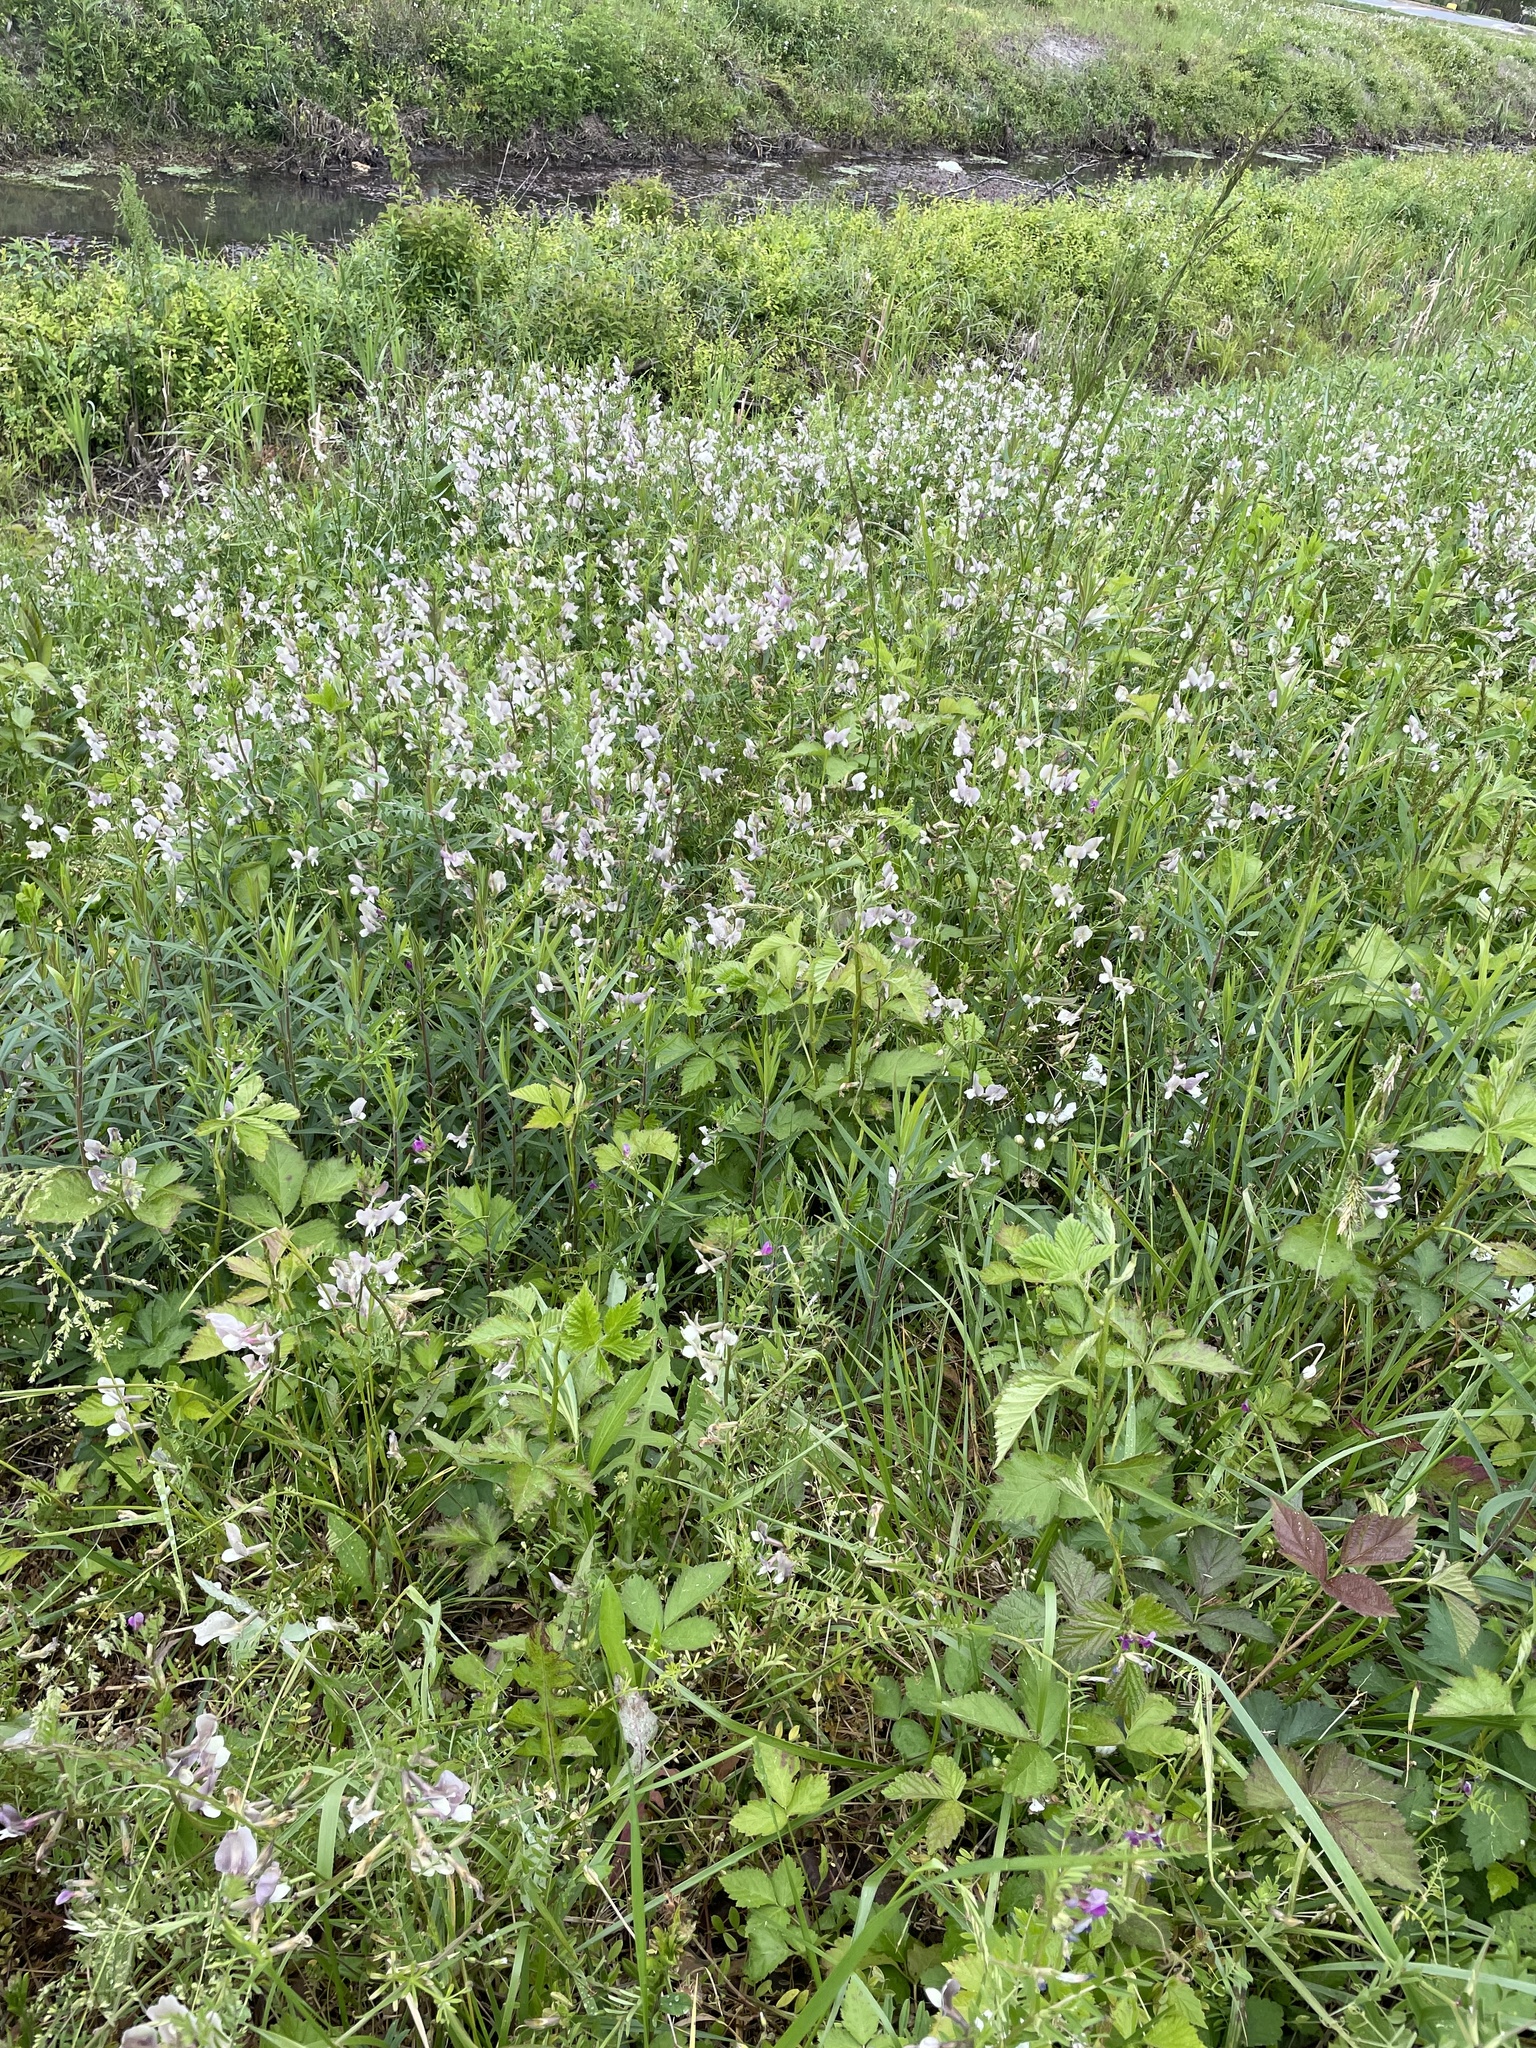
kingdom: Plantae
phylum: Tracheophyta
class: Magnoliopsida
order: Fabales
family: Fabaceae
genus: Vicia
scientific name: Vicia grandiflora
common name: Large yellow vetch
